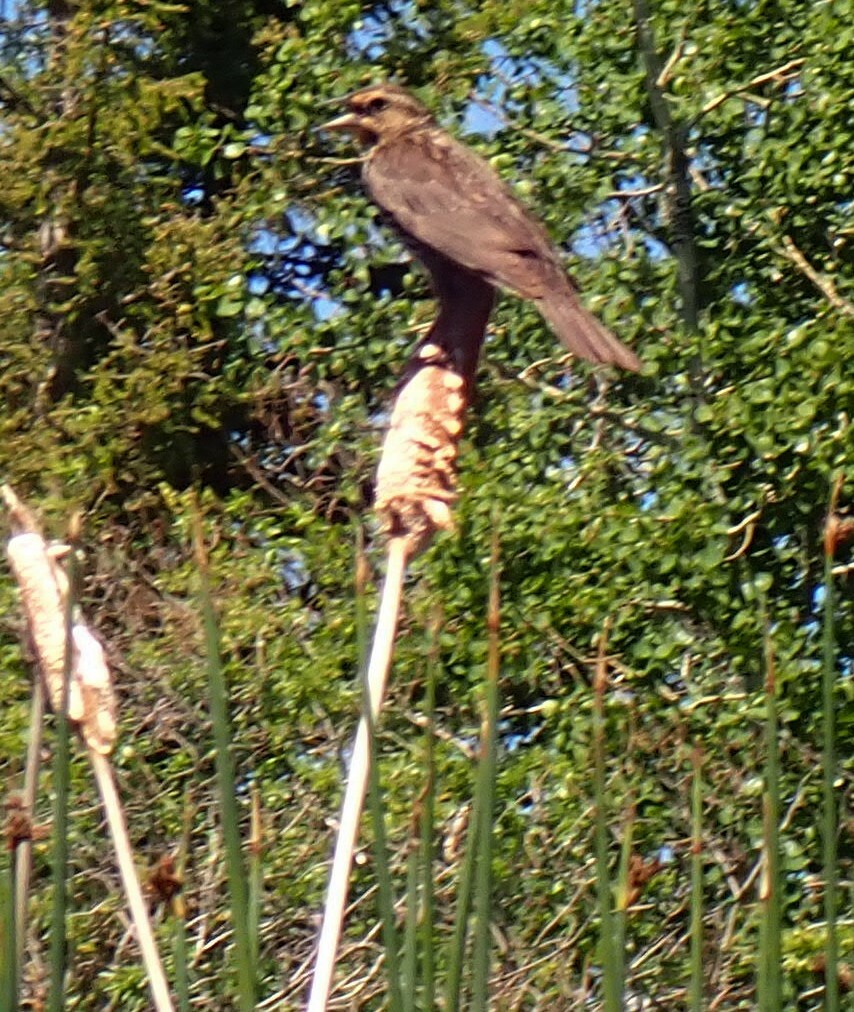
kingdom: Animalia
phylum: Chordata
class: Aves
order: Passeriformes
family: Icteridae
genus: Agelaius
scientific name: Agelaius phoeniceus
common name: Red-winged blackbird
